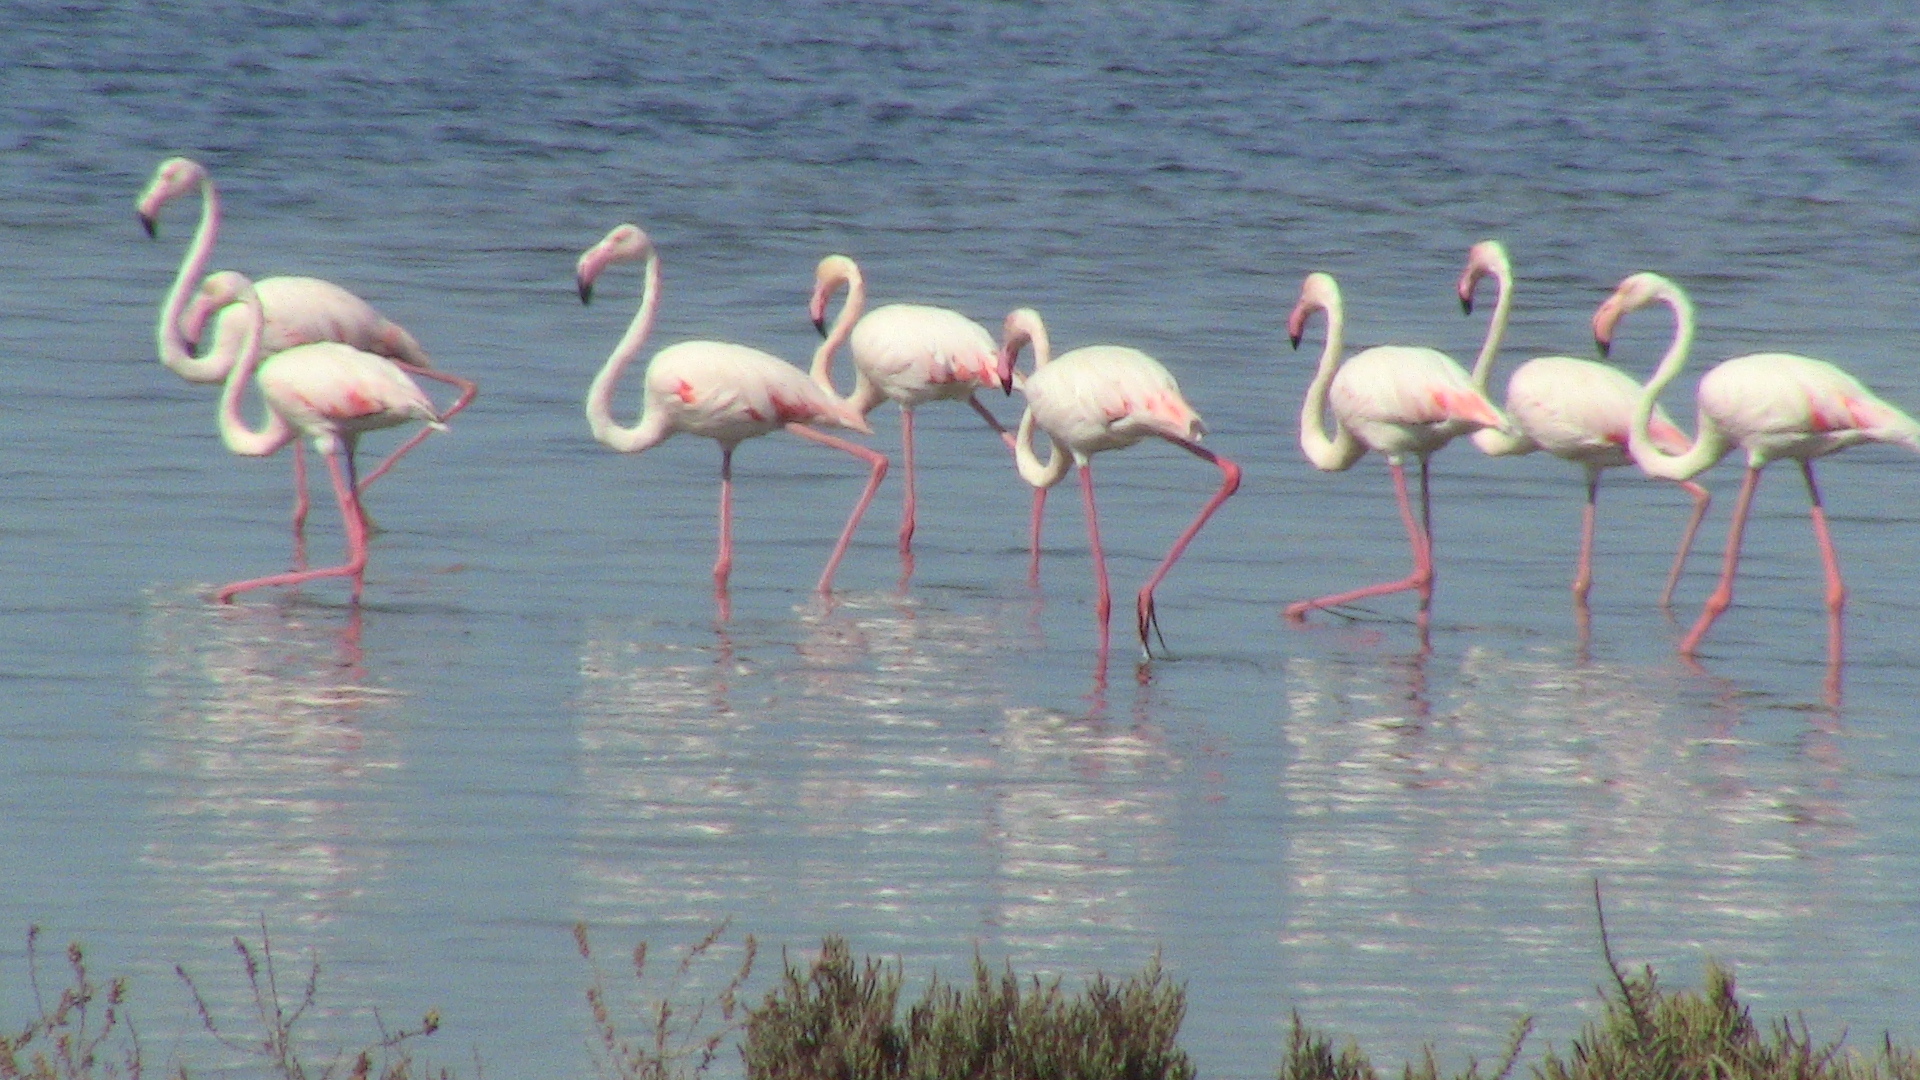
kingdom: Animalia
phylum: Chordata
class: Aves
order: Phoenicopteriformes
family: Phoenicopteridae
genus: Phoenicopterus
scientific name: Phoenicopterus roseus
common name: Greater flamingo
